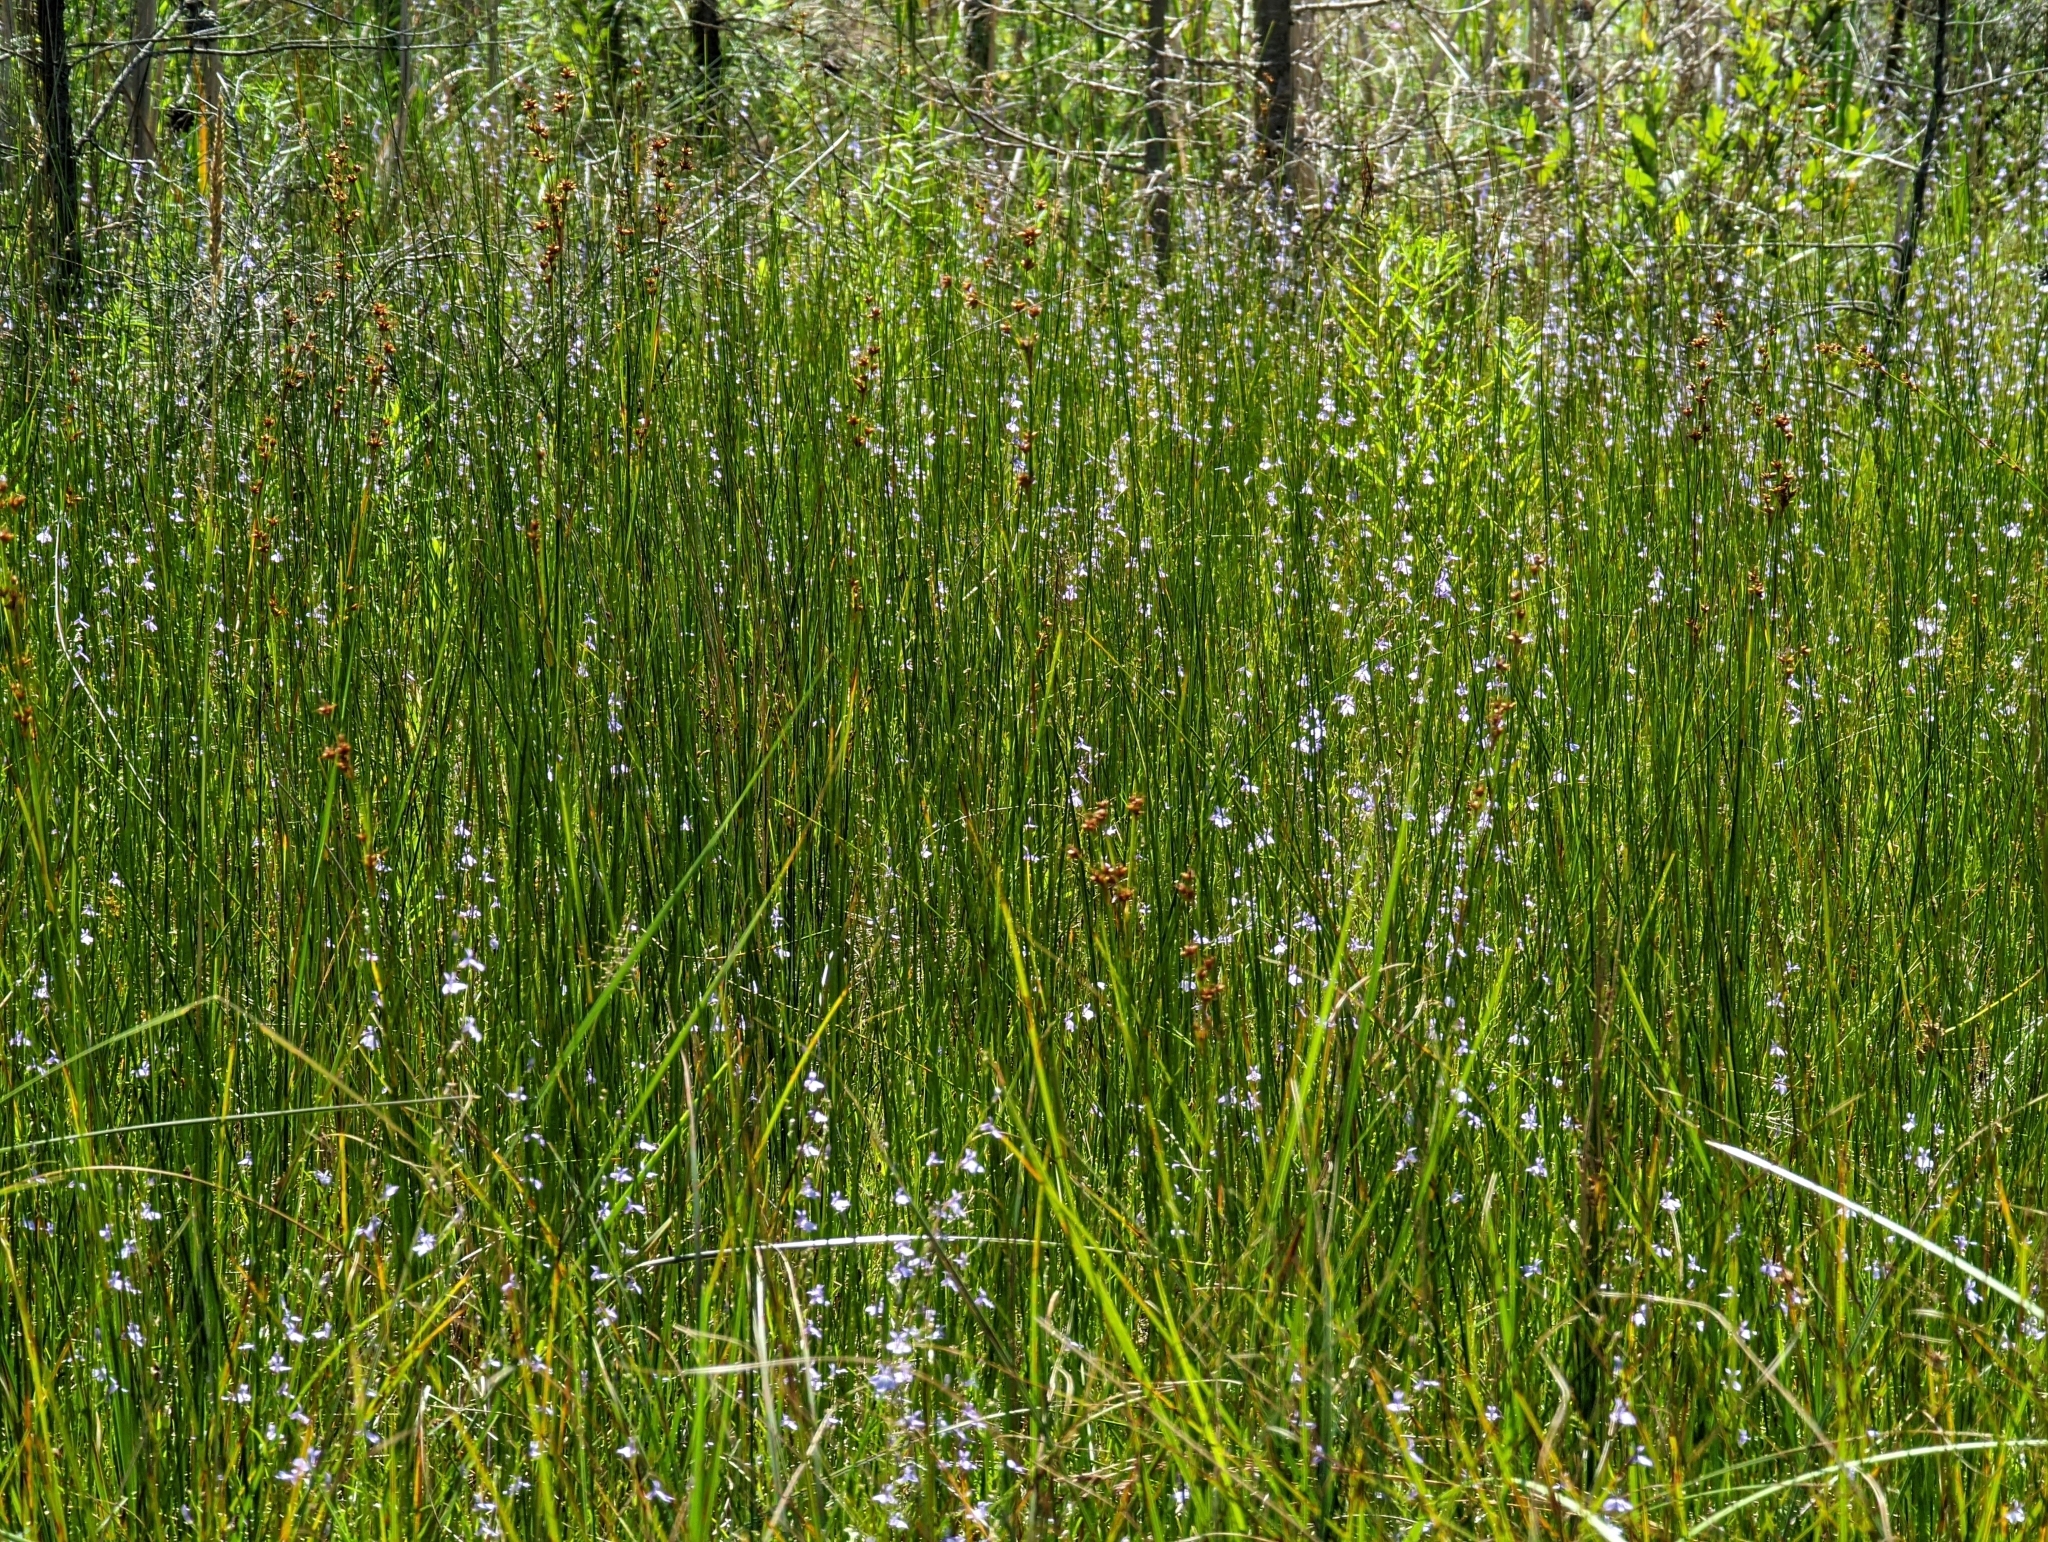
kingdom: Plantae
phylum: Tracheophyta
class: Magnoliopsida
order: Asterales
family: Campanulaceae
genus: Lobelia
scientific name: Lobelia kalmii
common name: Kalm's lobelia
